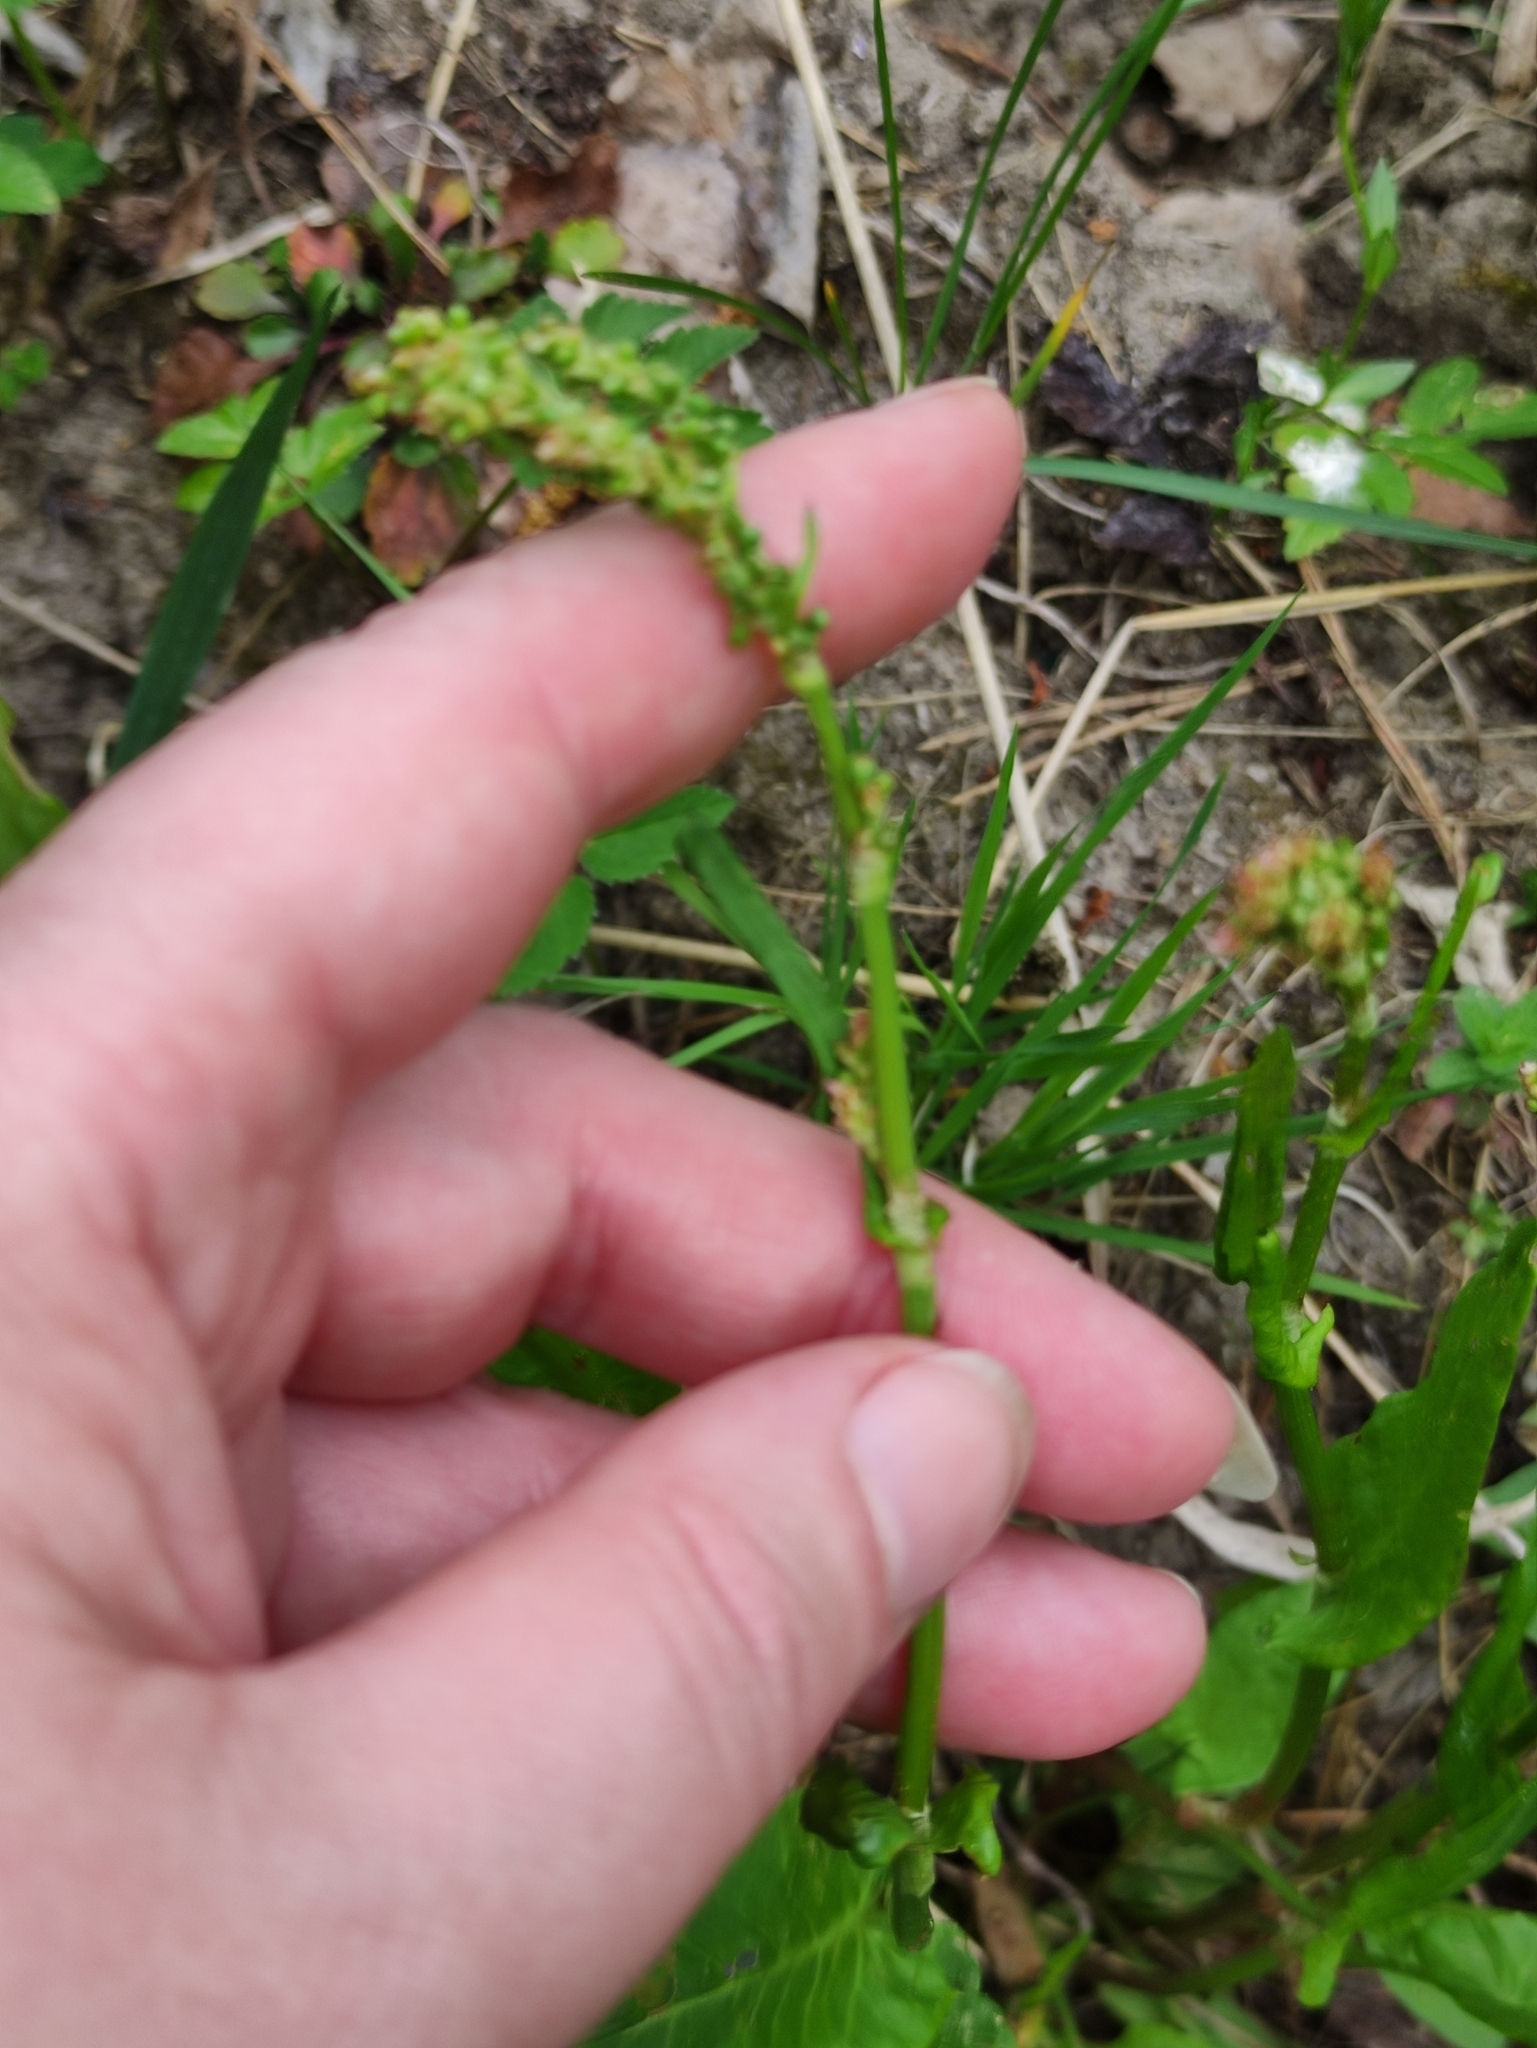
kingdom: Plantae
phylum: Tracheophyta
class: Magnoliopsida
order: Caryophyllales
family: Polygonaceae
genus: Rumex
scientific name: Rumex acetosa
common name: Garden sorrel
